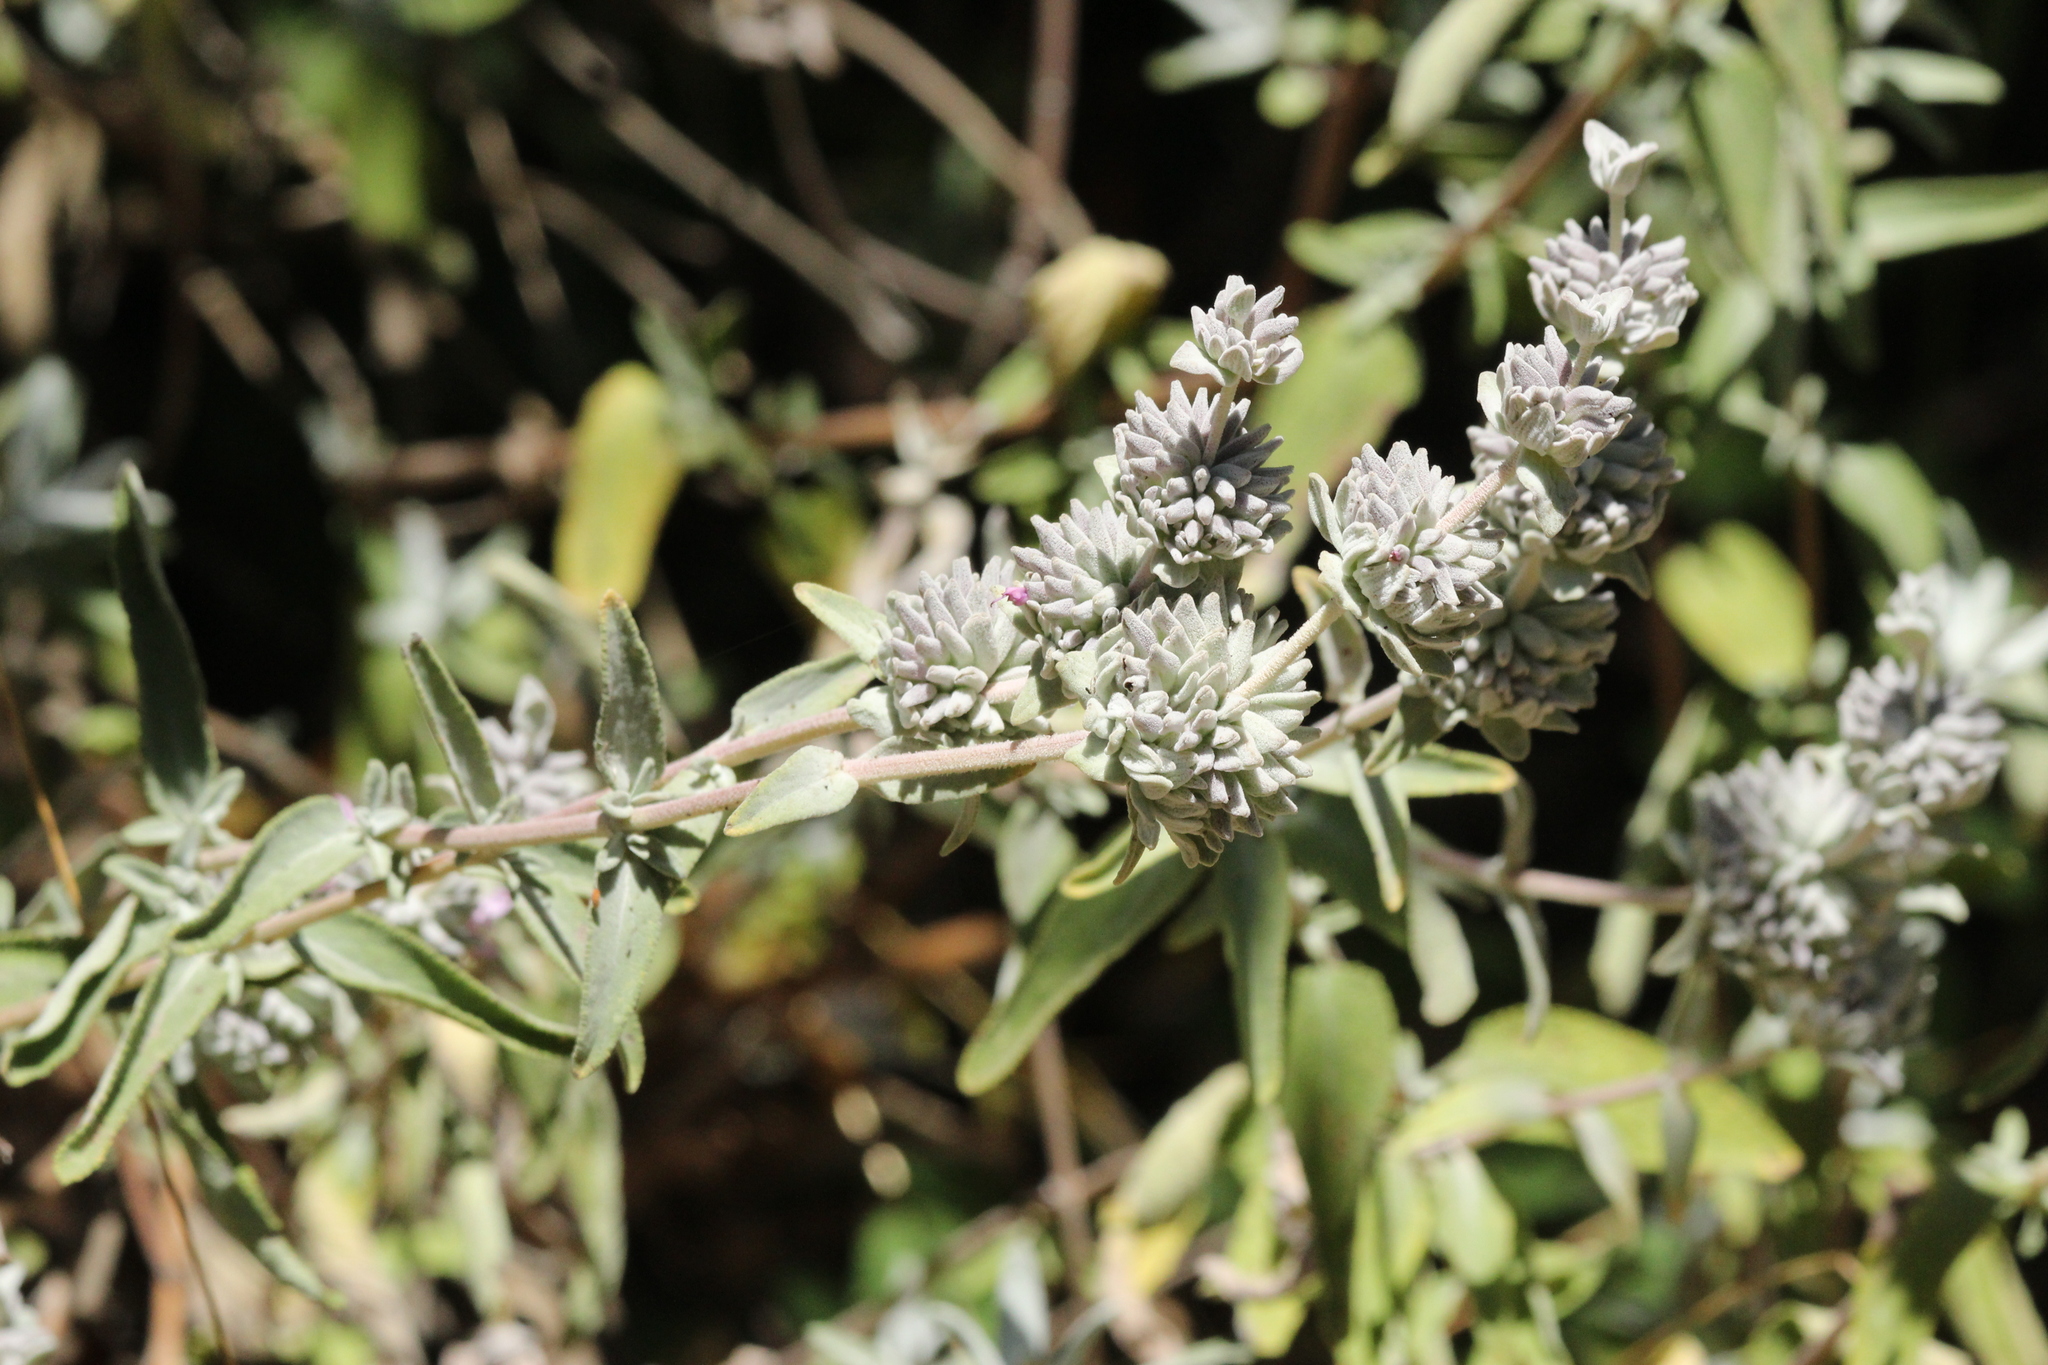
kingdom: Plantae
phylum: Tracheophyta
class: Magnoliopsida
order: Lamiales
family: Lamiaceae
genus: Salvia
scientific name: Salvia leucophylla
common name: Purple sage
